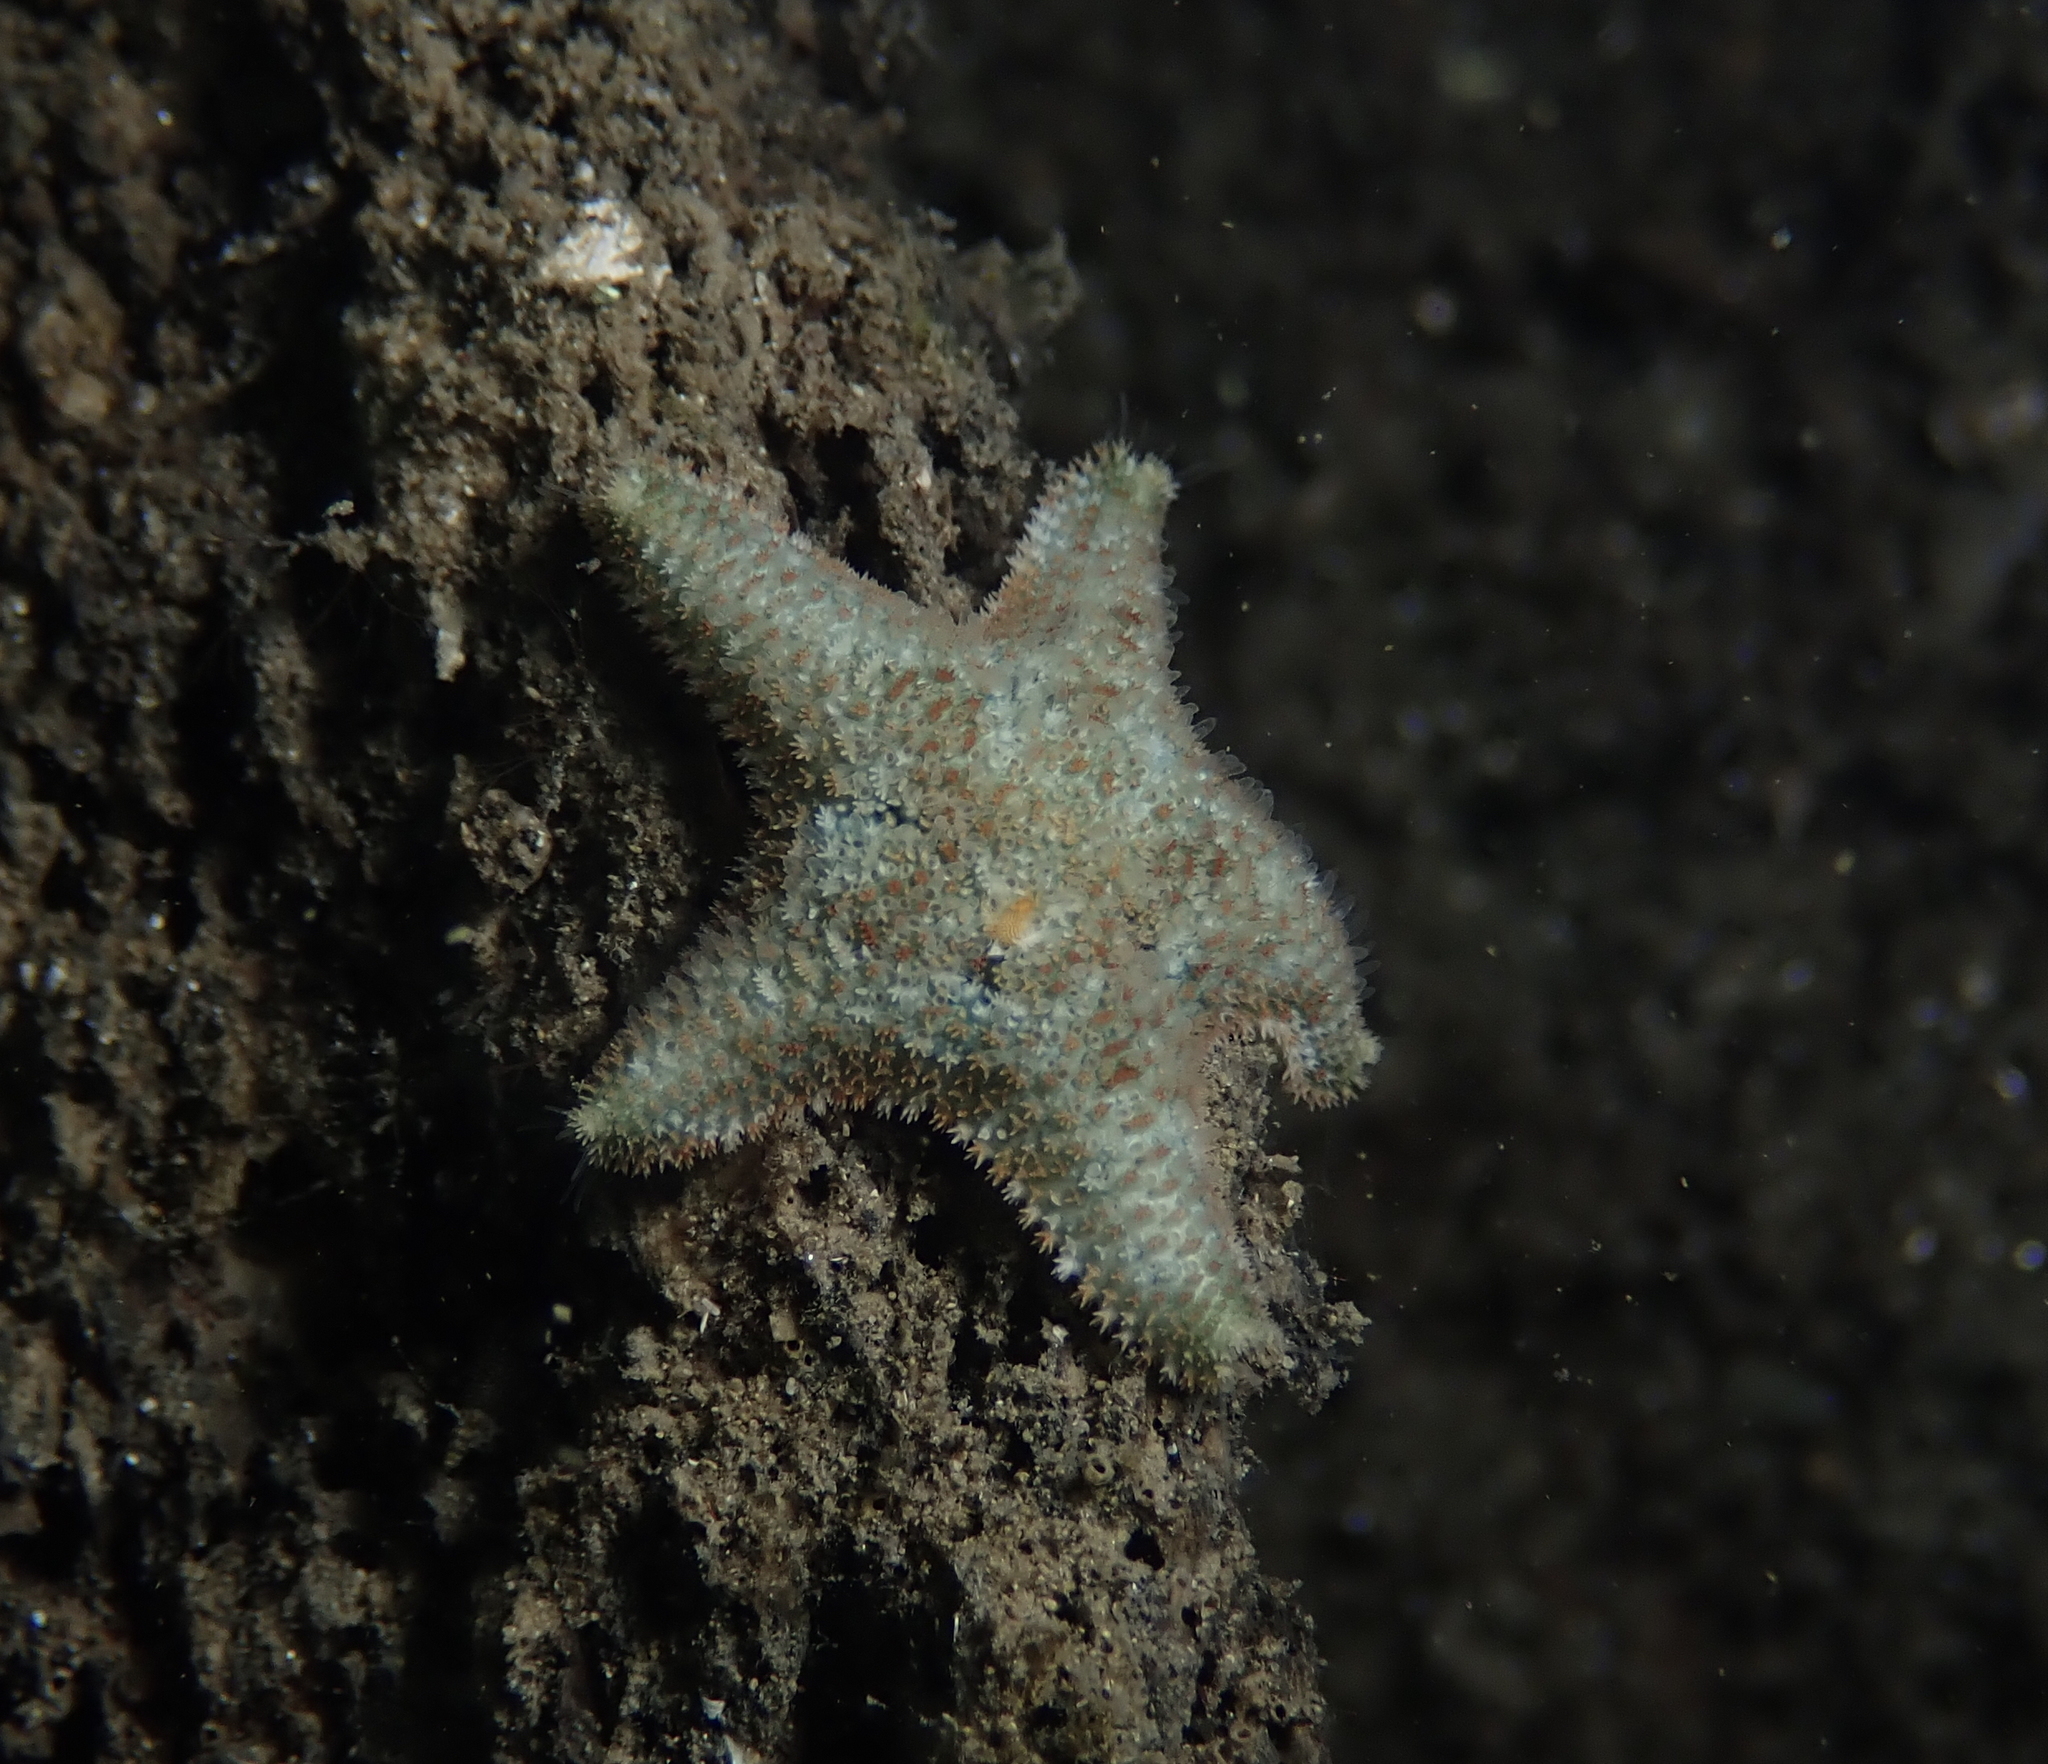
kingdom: Animalia
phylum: Echinodermata
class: Asteroidea
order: Valvatida
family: Asterinidae
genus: Asterina
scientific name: Asterina gibbosa
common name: Cushion star
